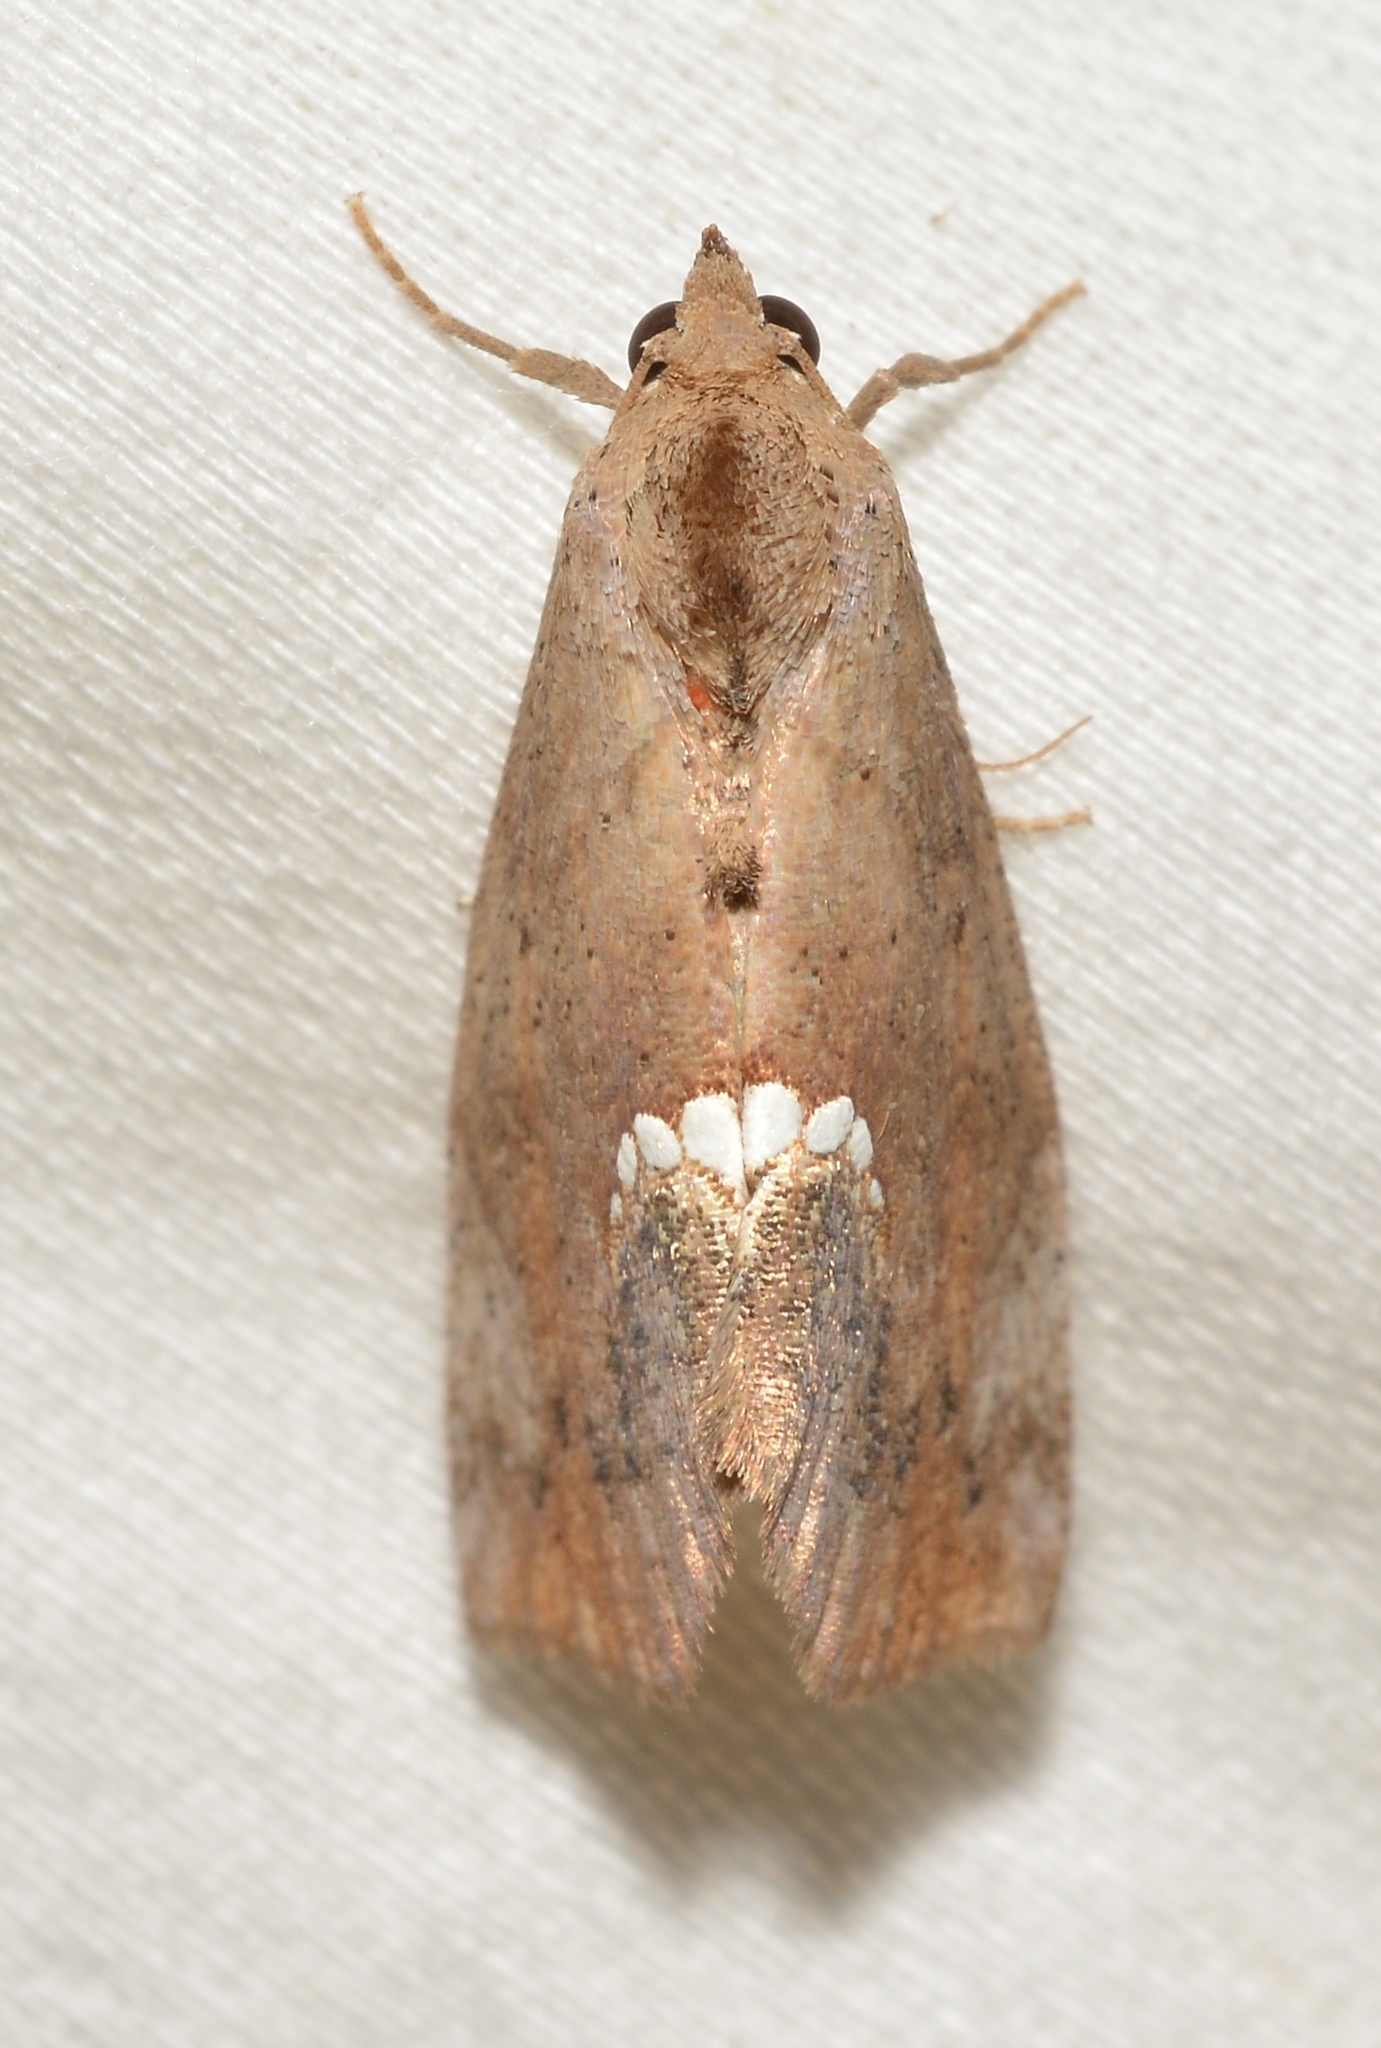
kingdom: Animalia
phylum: Arthropoda
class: Insecta
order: Lepidoptera
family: Erebidae
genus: Hypsoropha
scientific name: Hypsoropha hormos
